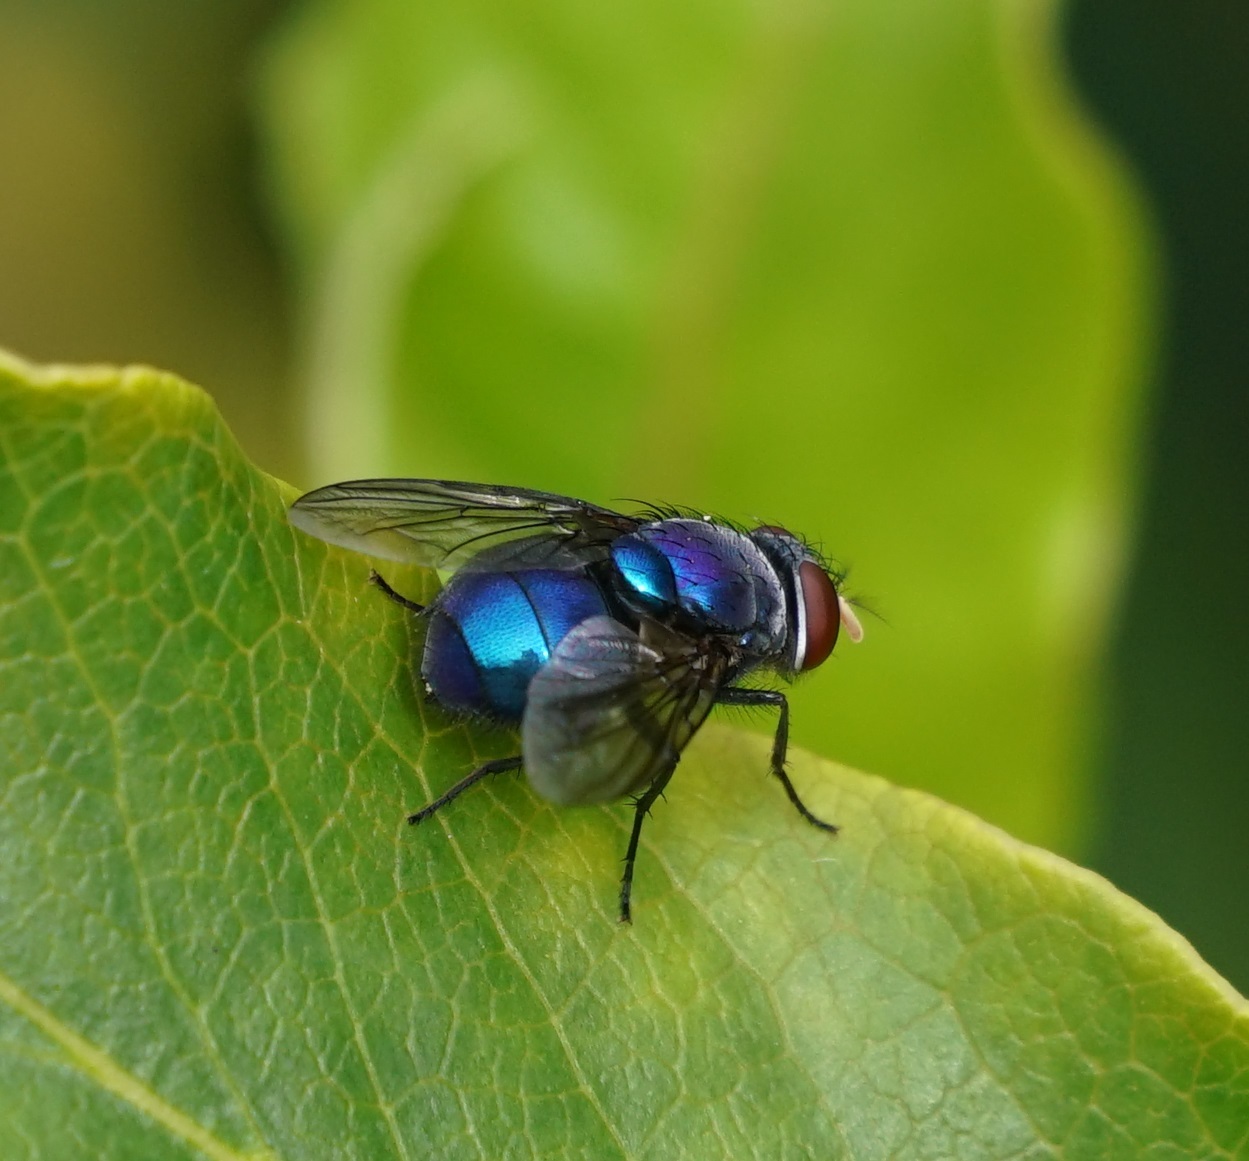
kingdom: Animalia
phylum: Arthropoda
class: Insecta
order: Diptera
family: Calliphoridae
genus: Lucilia
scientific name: Lucilia porphyrina
